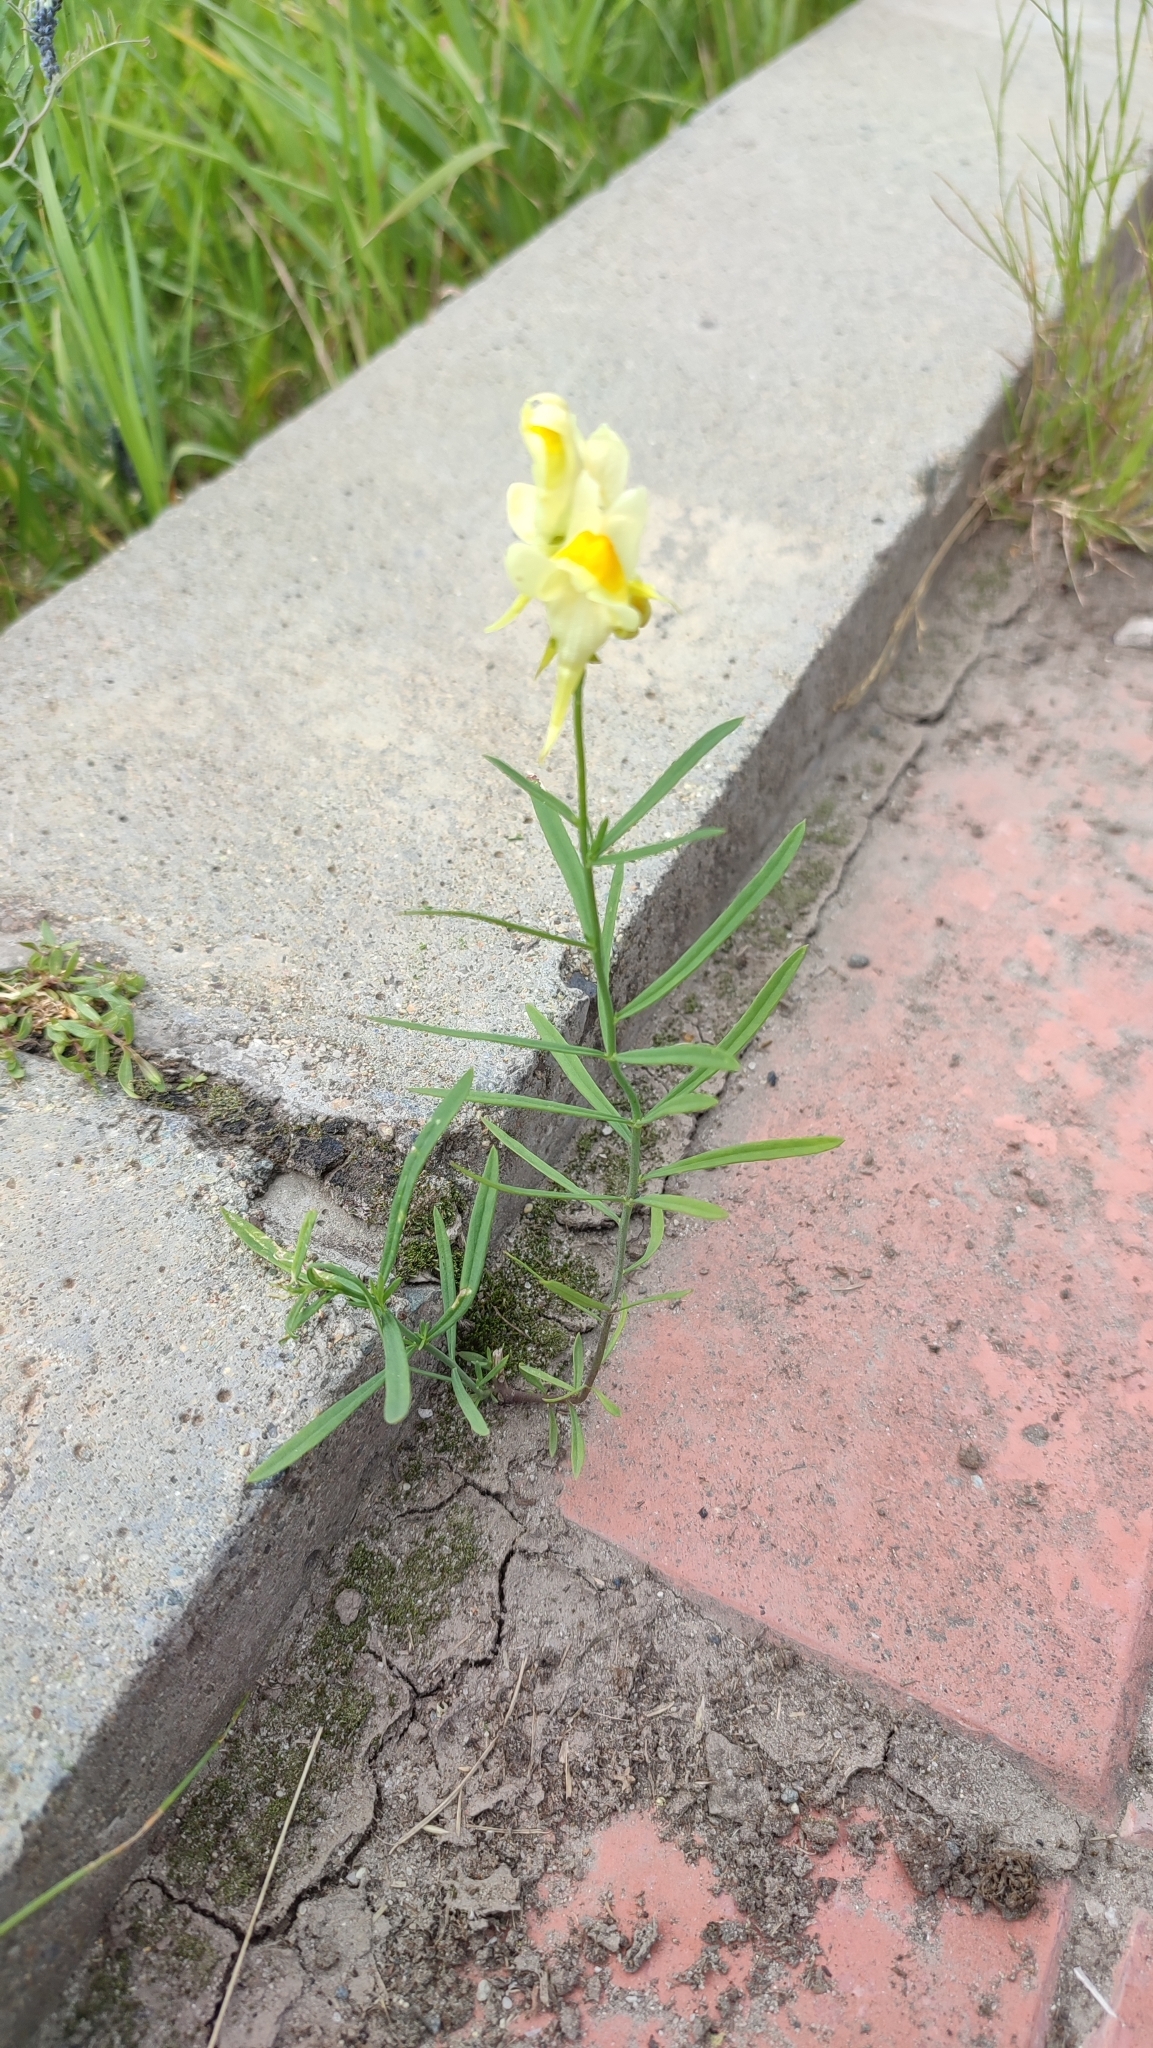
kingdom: Plantae
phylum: Tracheophyta
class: Magnoliopsida
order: Lamiales
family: Plantaginaceae
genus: Linaria
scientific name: Linaria vulgaris
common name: Butter and eggs
